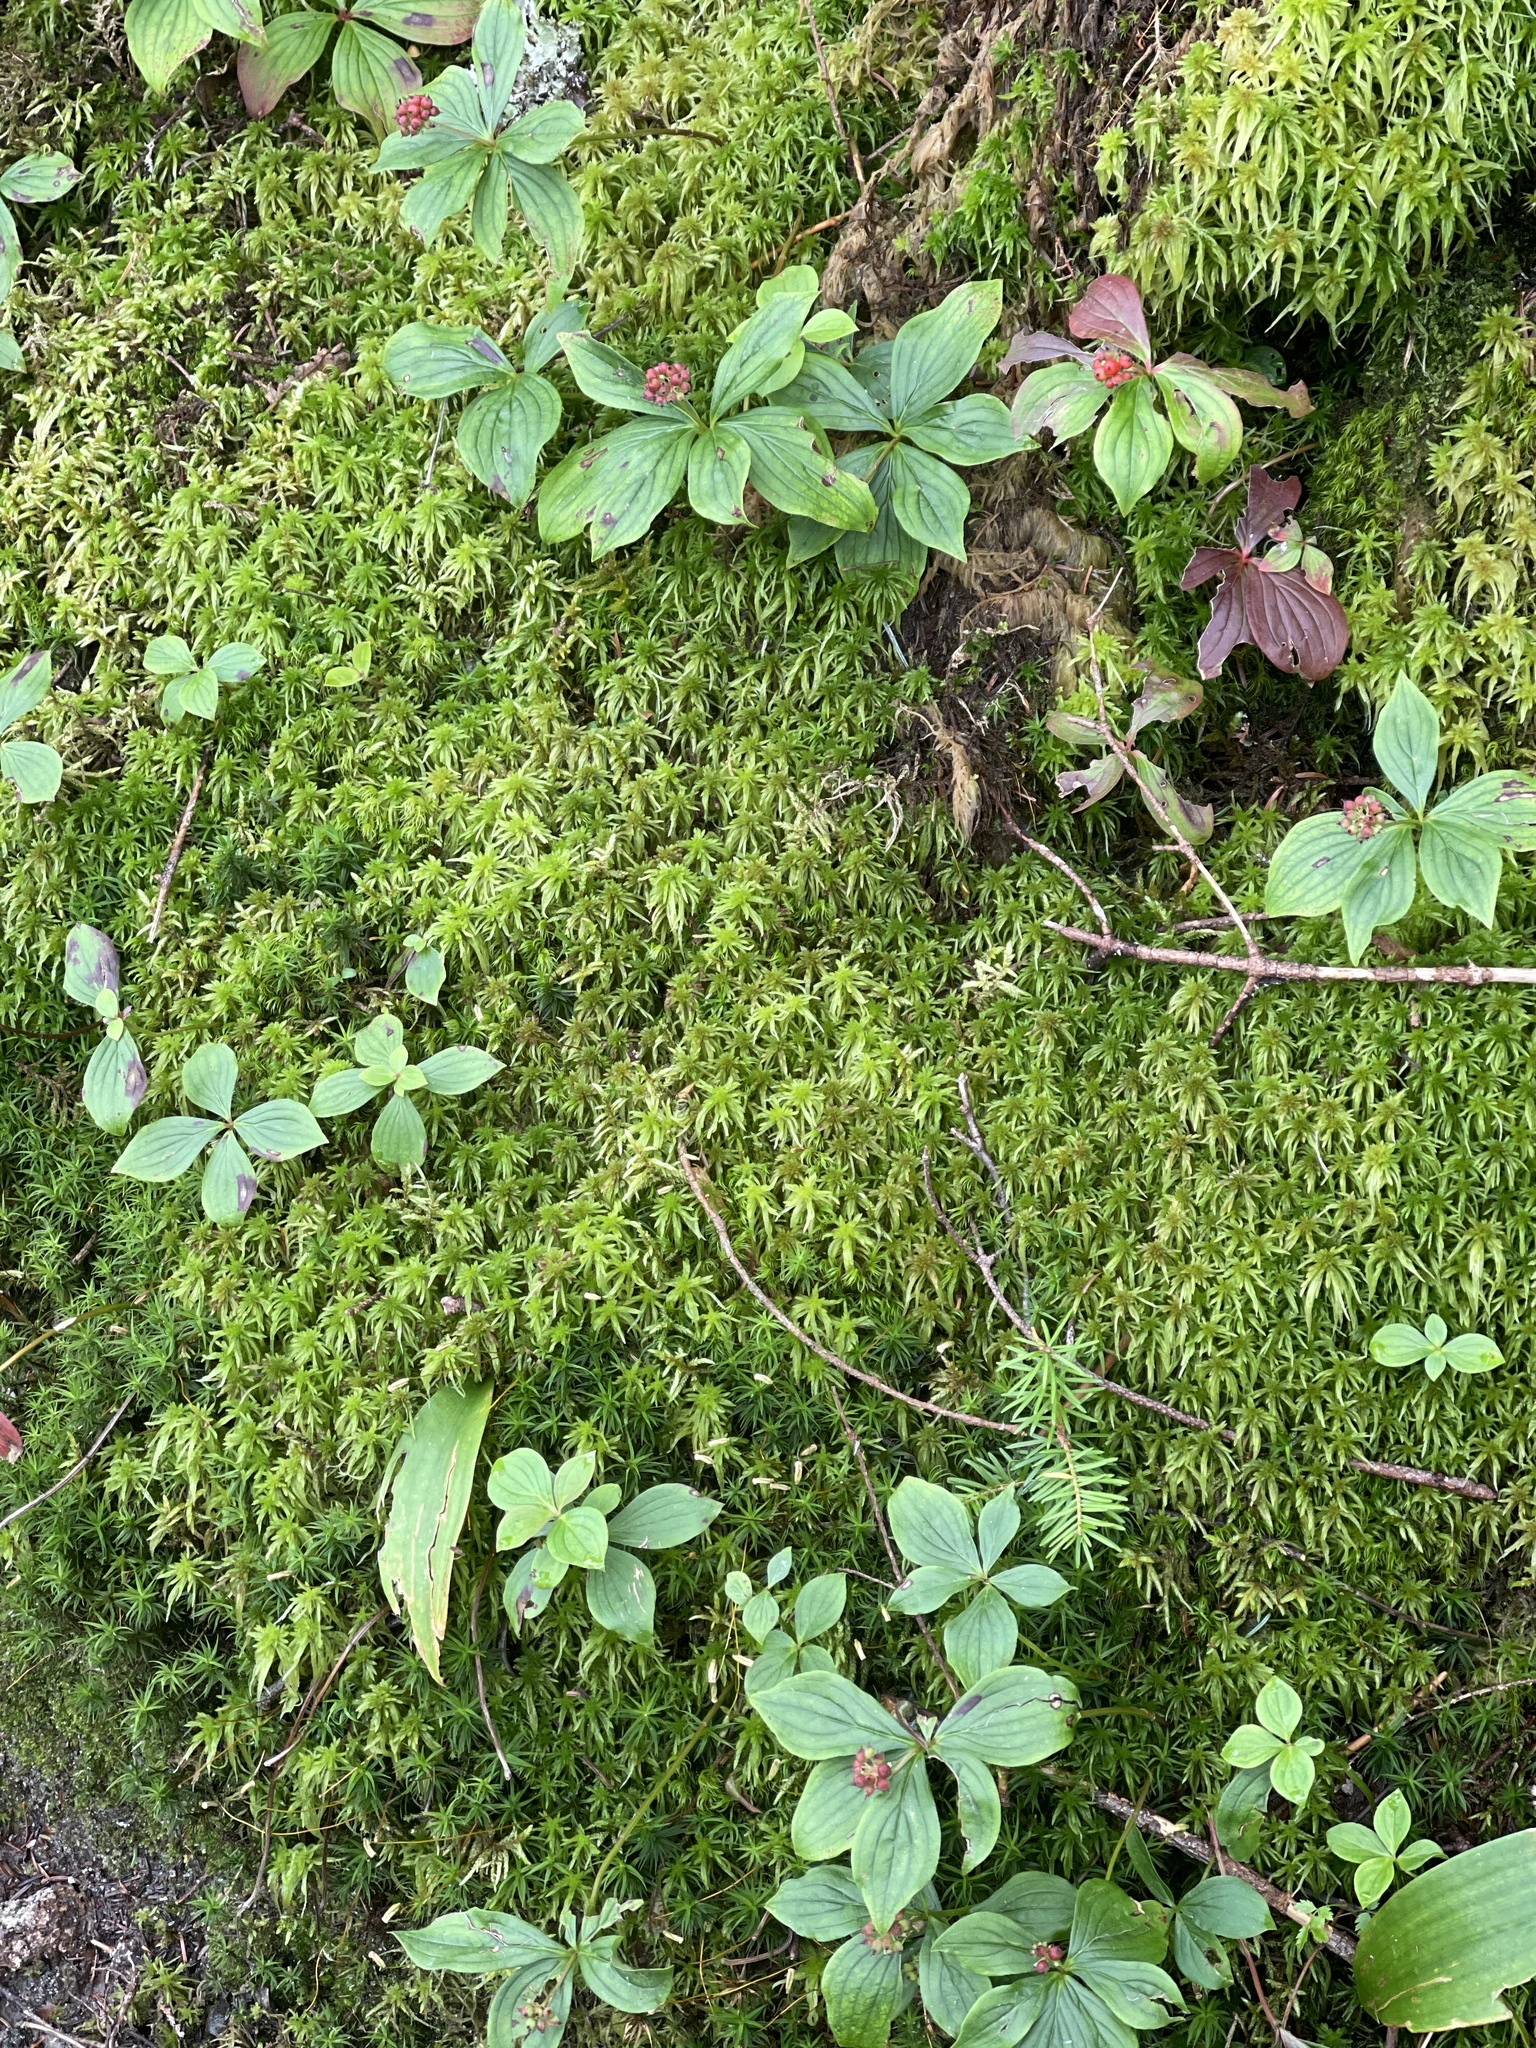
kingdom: Plantae
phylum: Tracheophyta
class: Magnoliopsida
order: Cornales
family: Cornaceae
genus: Cornus
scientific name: Cornus canadensis
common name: Creeping dogwood
